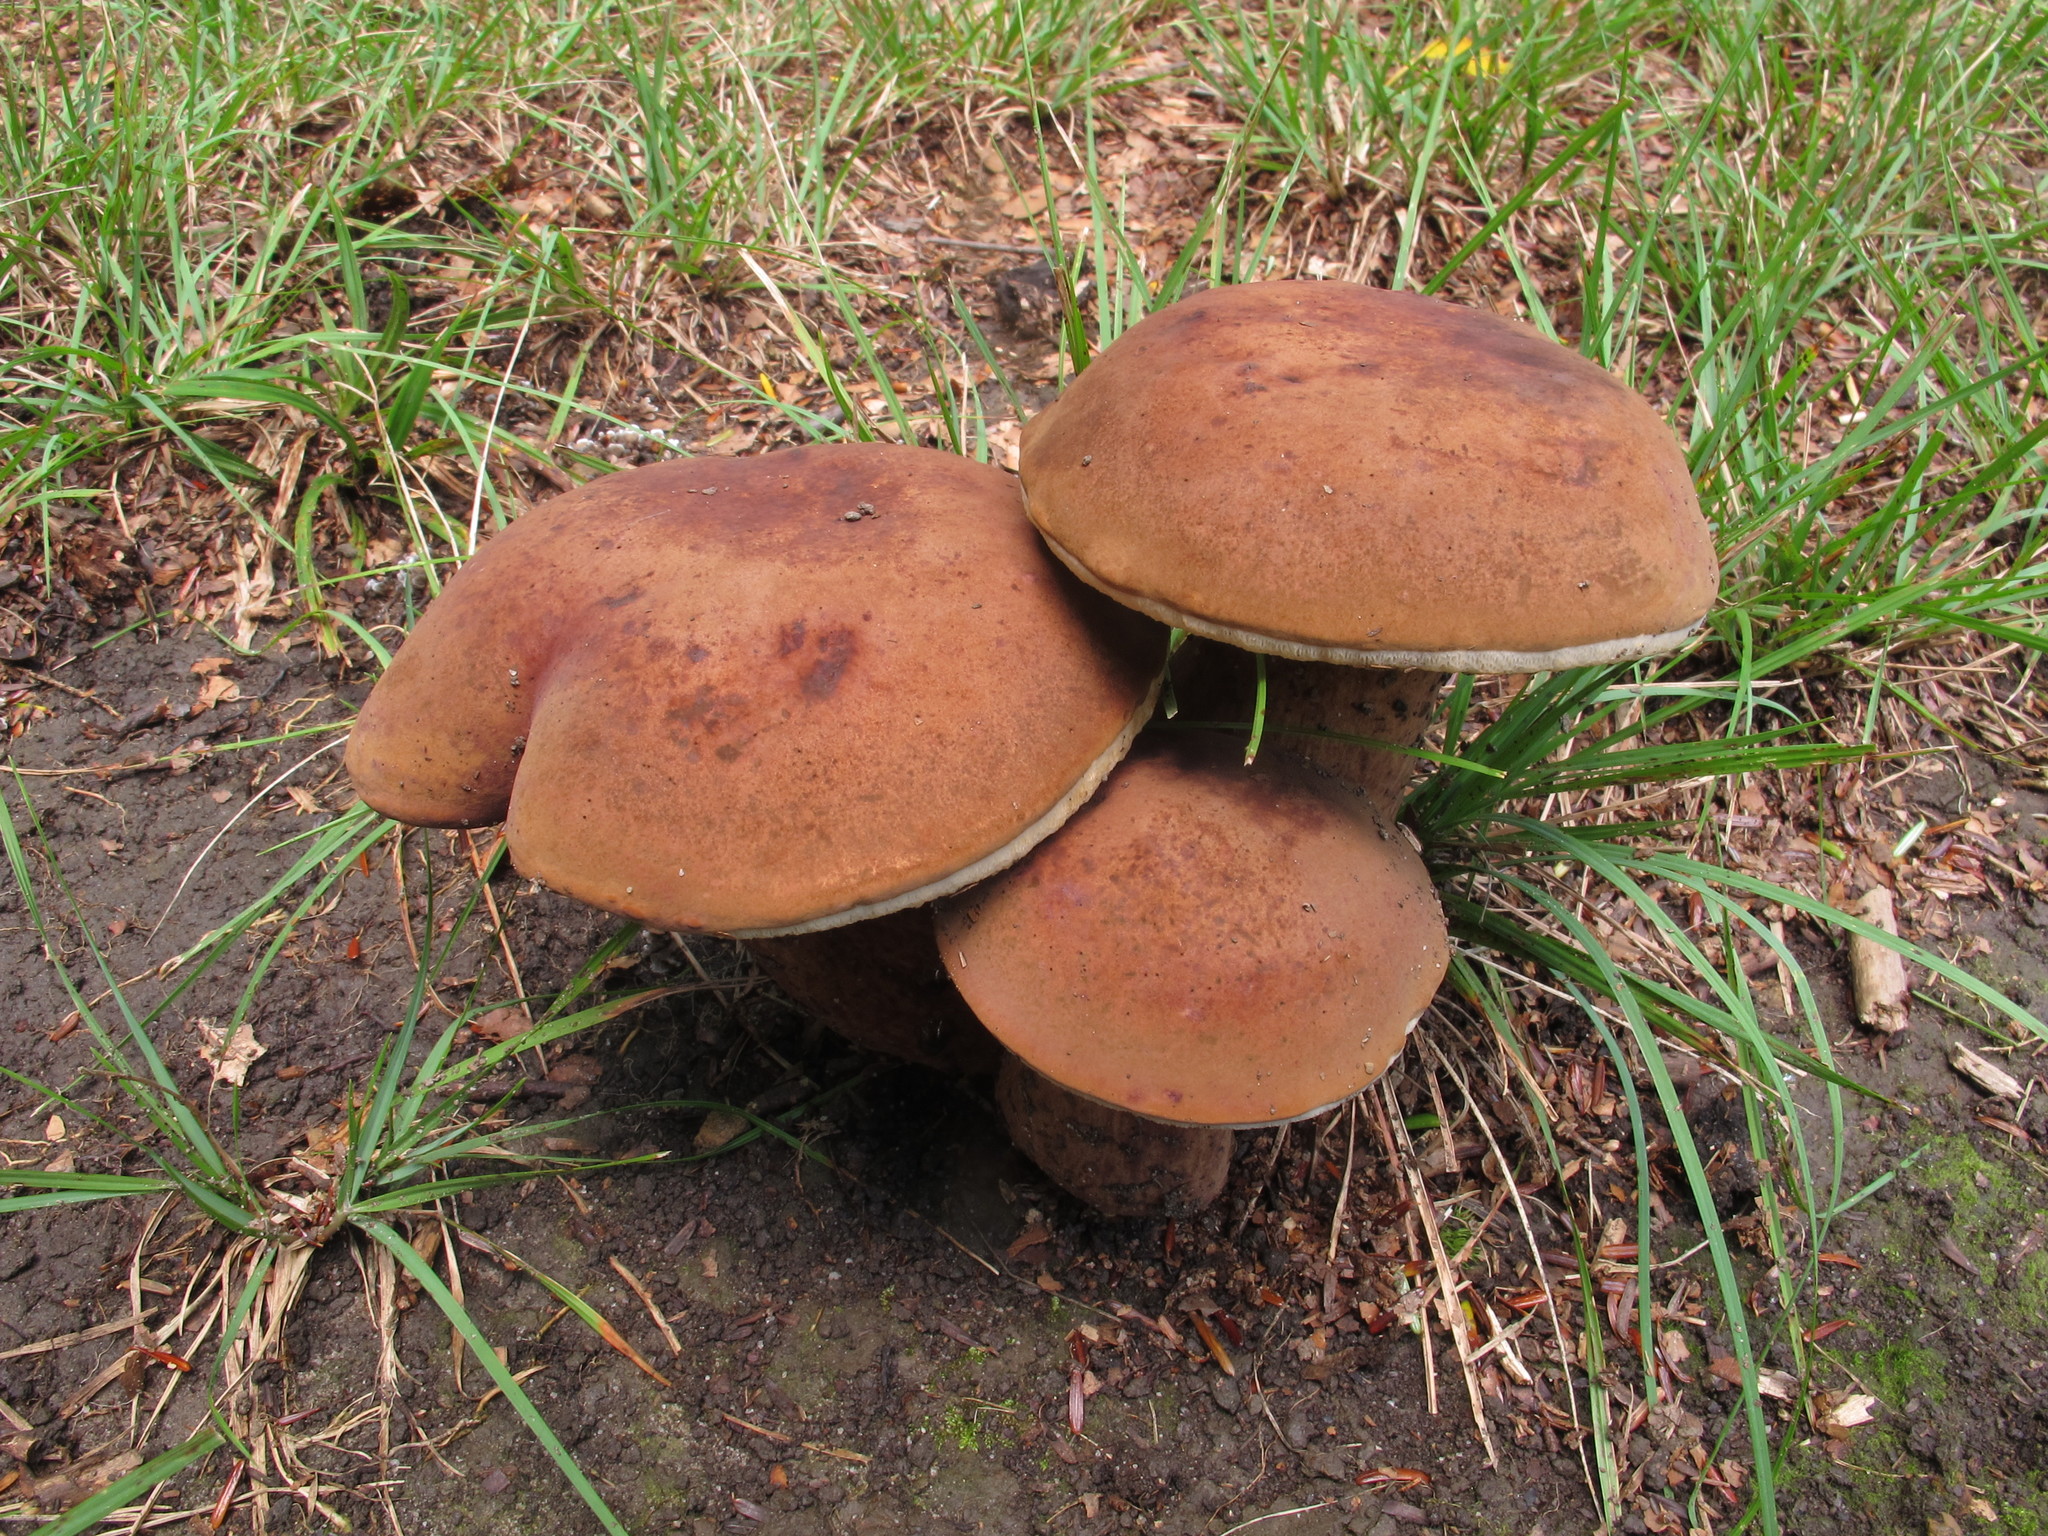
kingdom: Fungi
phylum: Basidiomycota
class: Agaricomycetes
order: Boletales
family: Boletaceae
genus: Tylopilus
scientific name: Tylopilus badiceps
